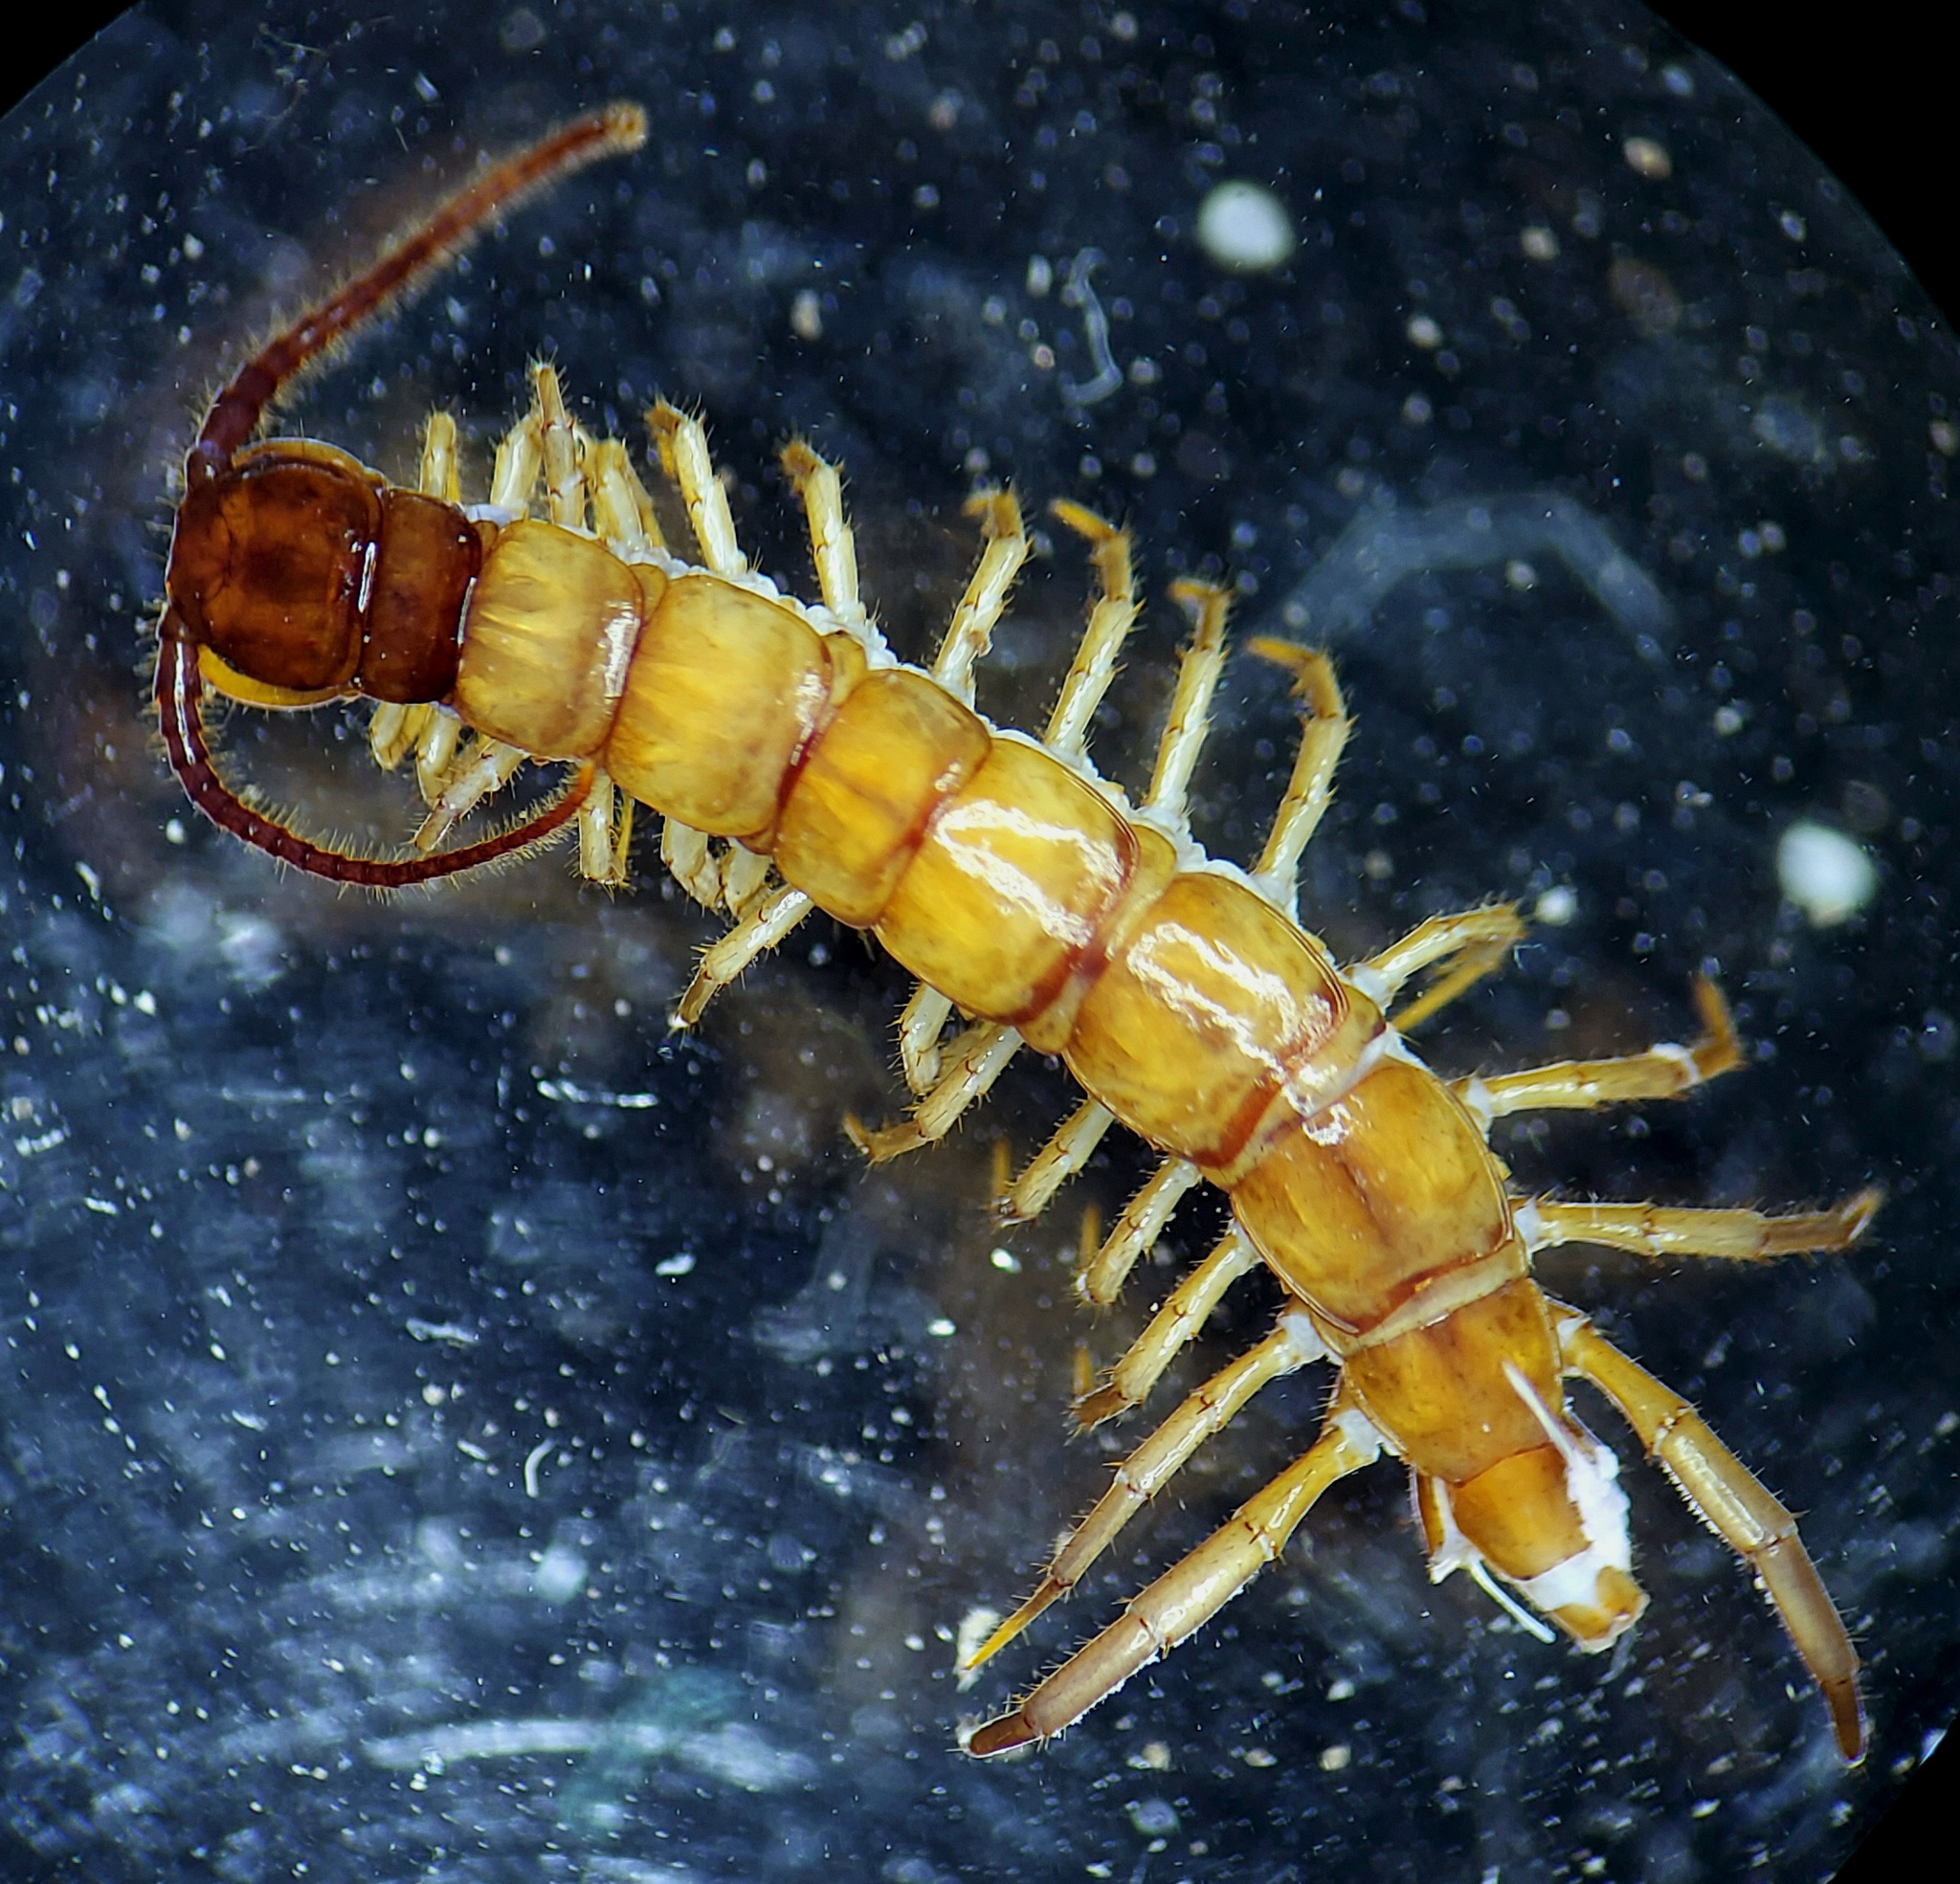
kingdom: Animalia
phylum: Arthropoda
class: Chilopoda
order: Lithobiomorpha
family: Lithobiidae
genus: Nadabius
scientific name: Nadabius aristeus
